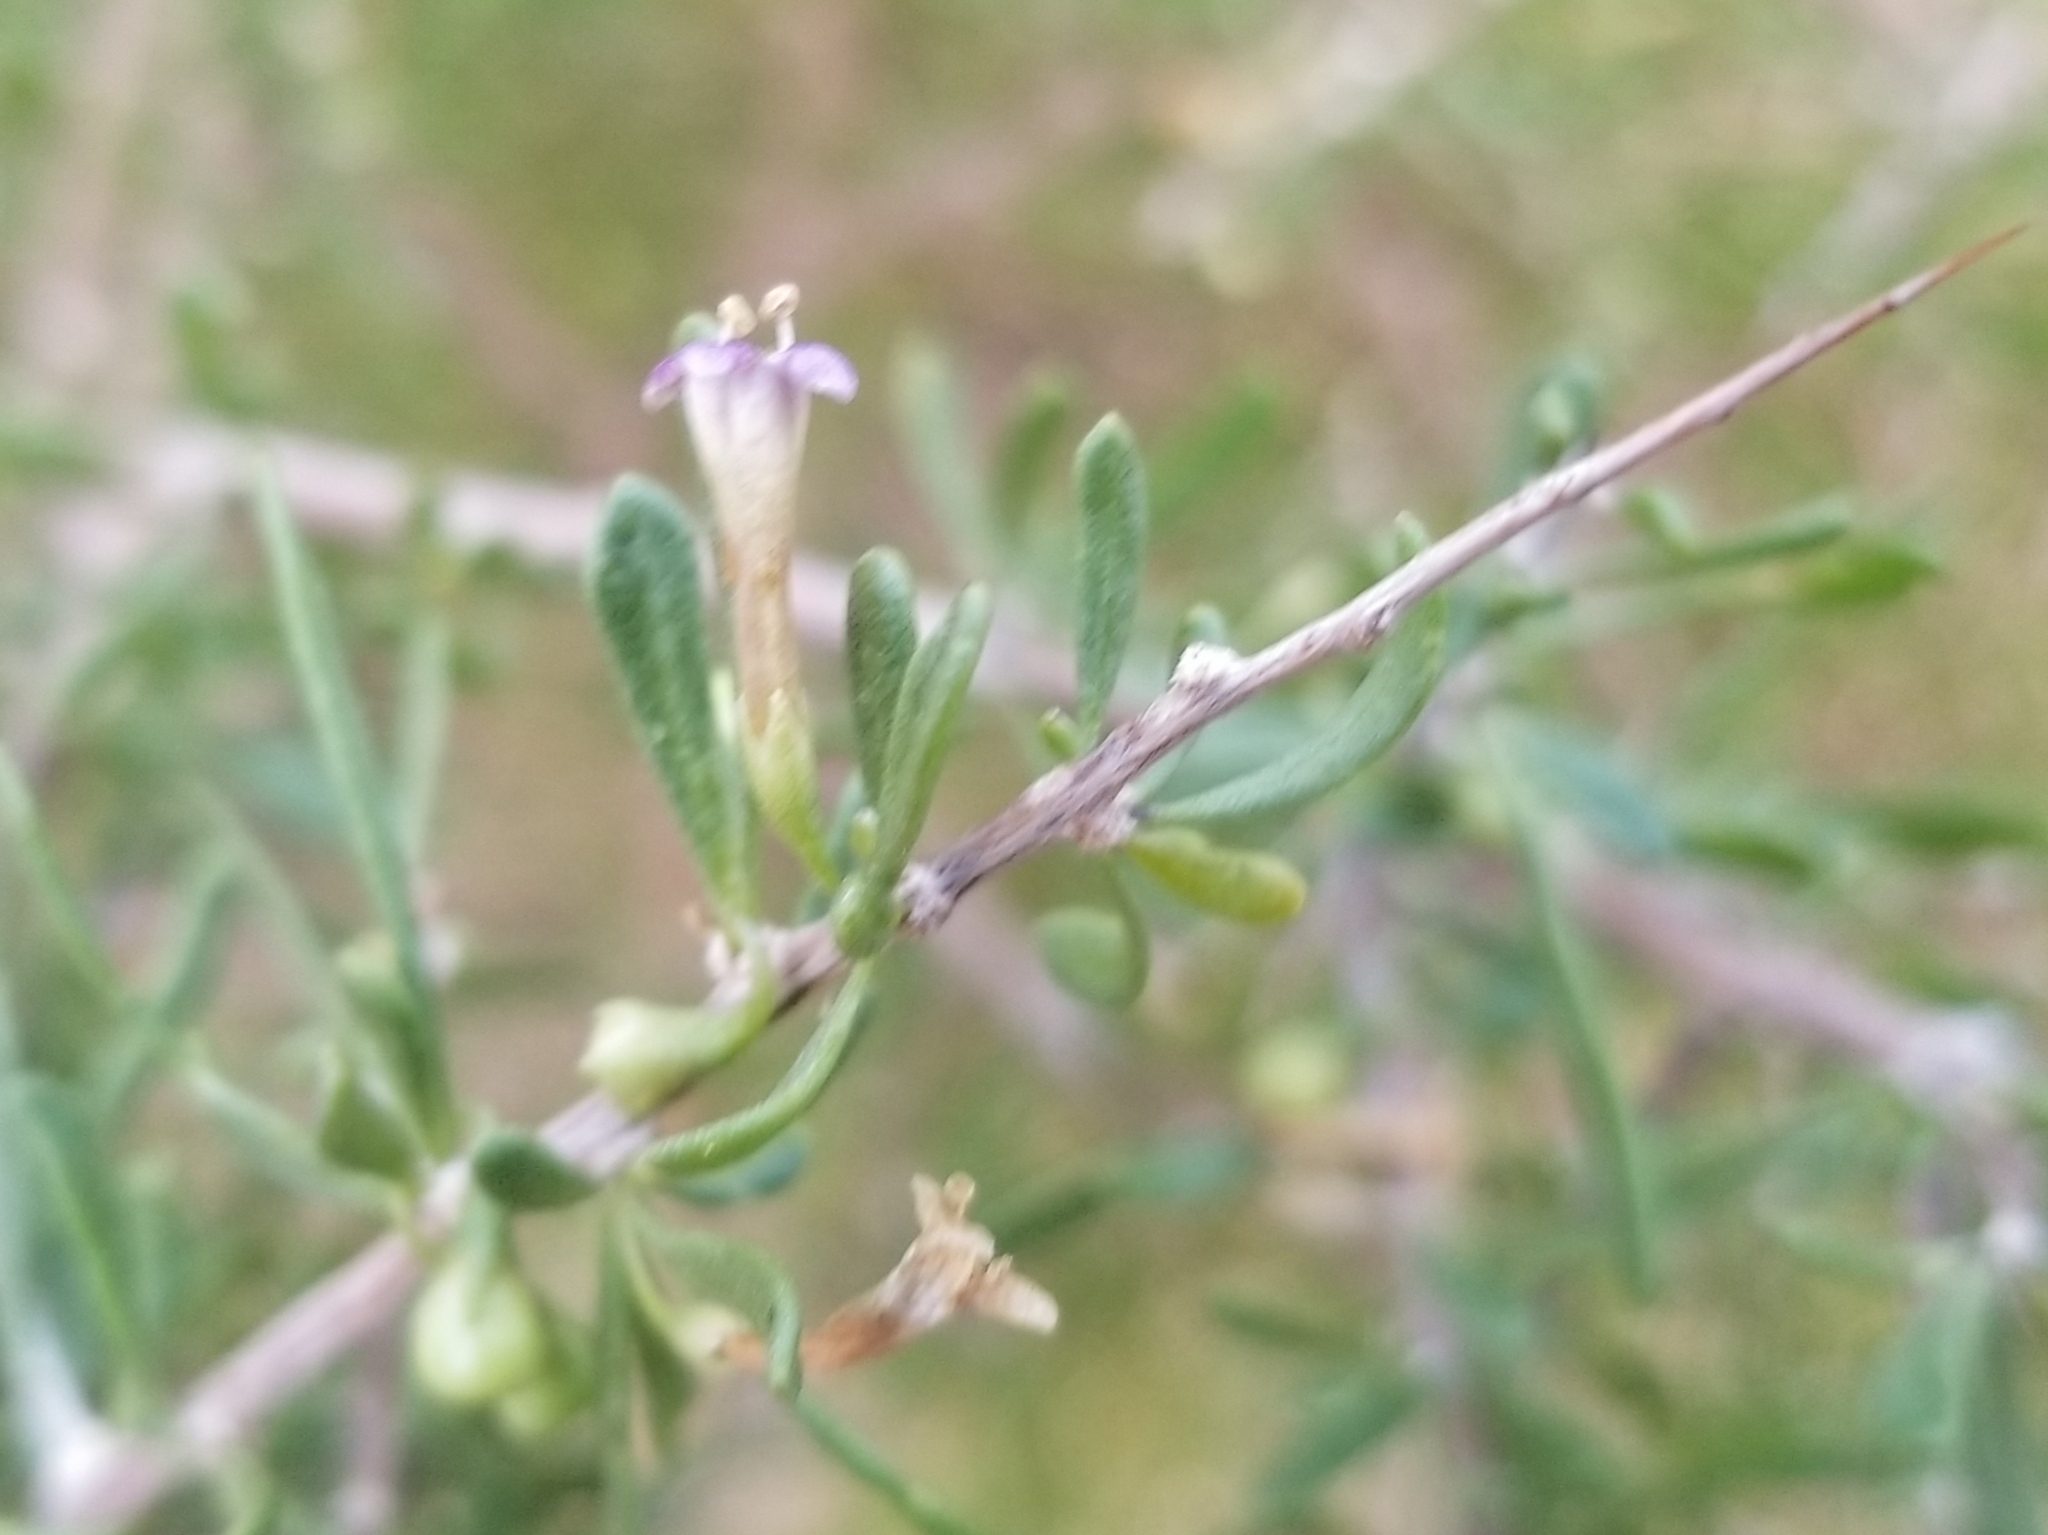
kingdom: Plantae
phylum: Tracheophyta
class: Magnoliopsida
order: Solanales
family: Solanaceae
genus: Lycium
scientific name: Lycium andersonii
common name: Water-jacket
